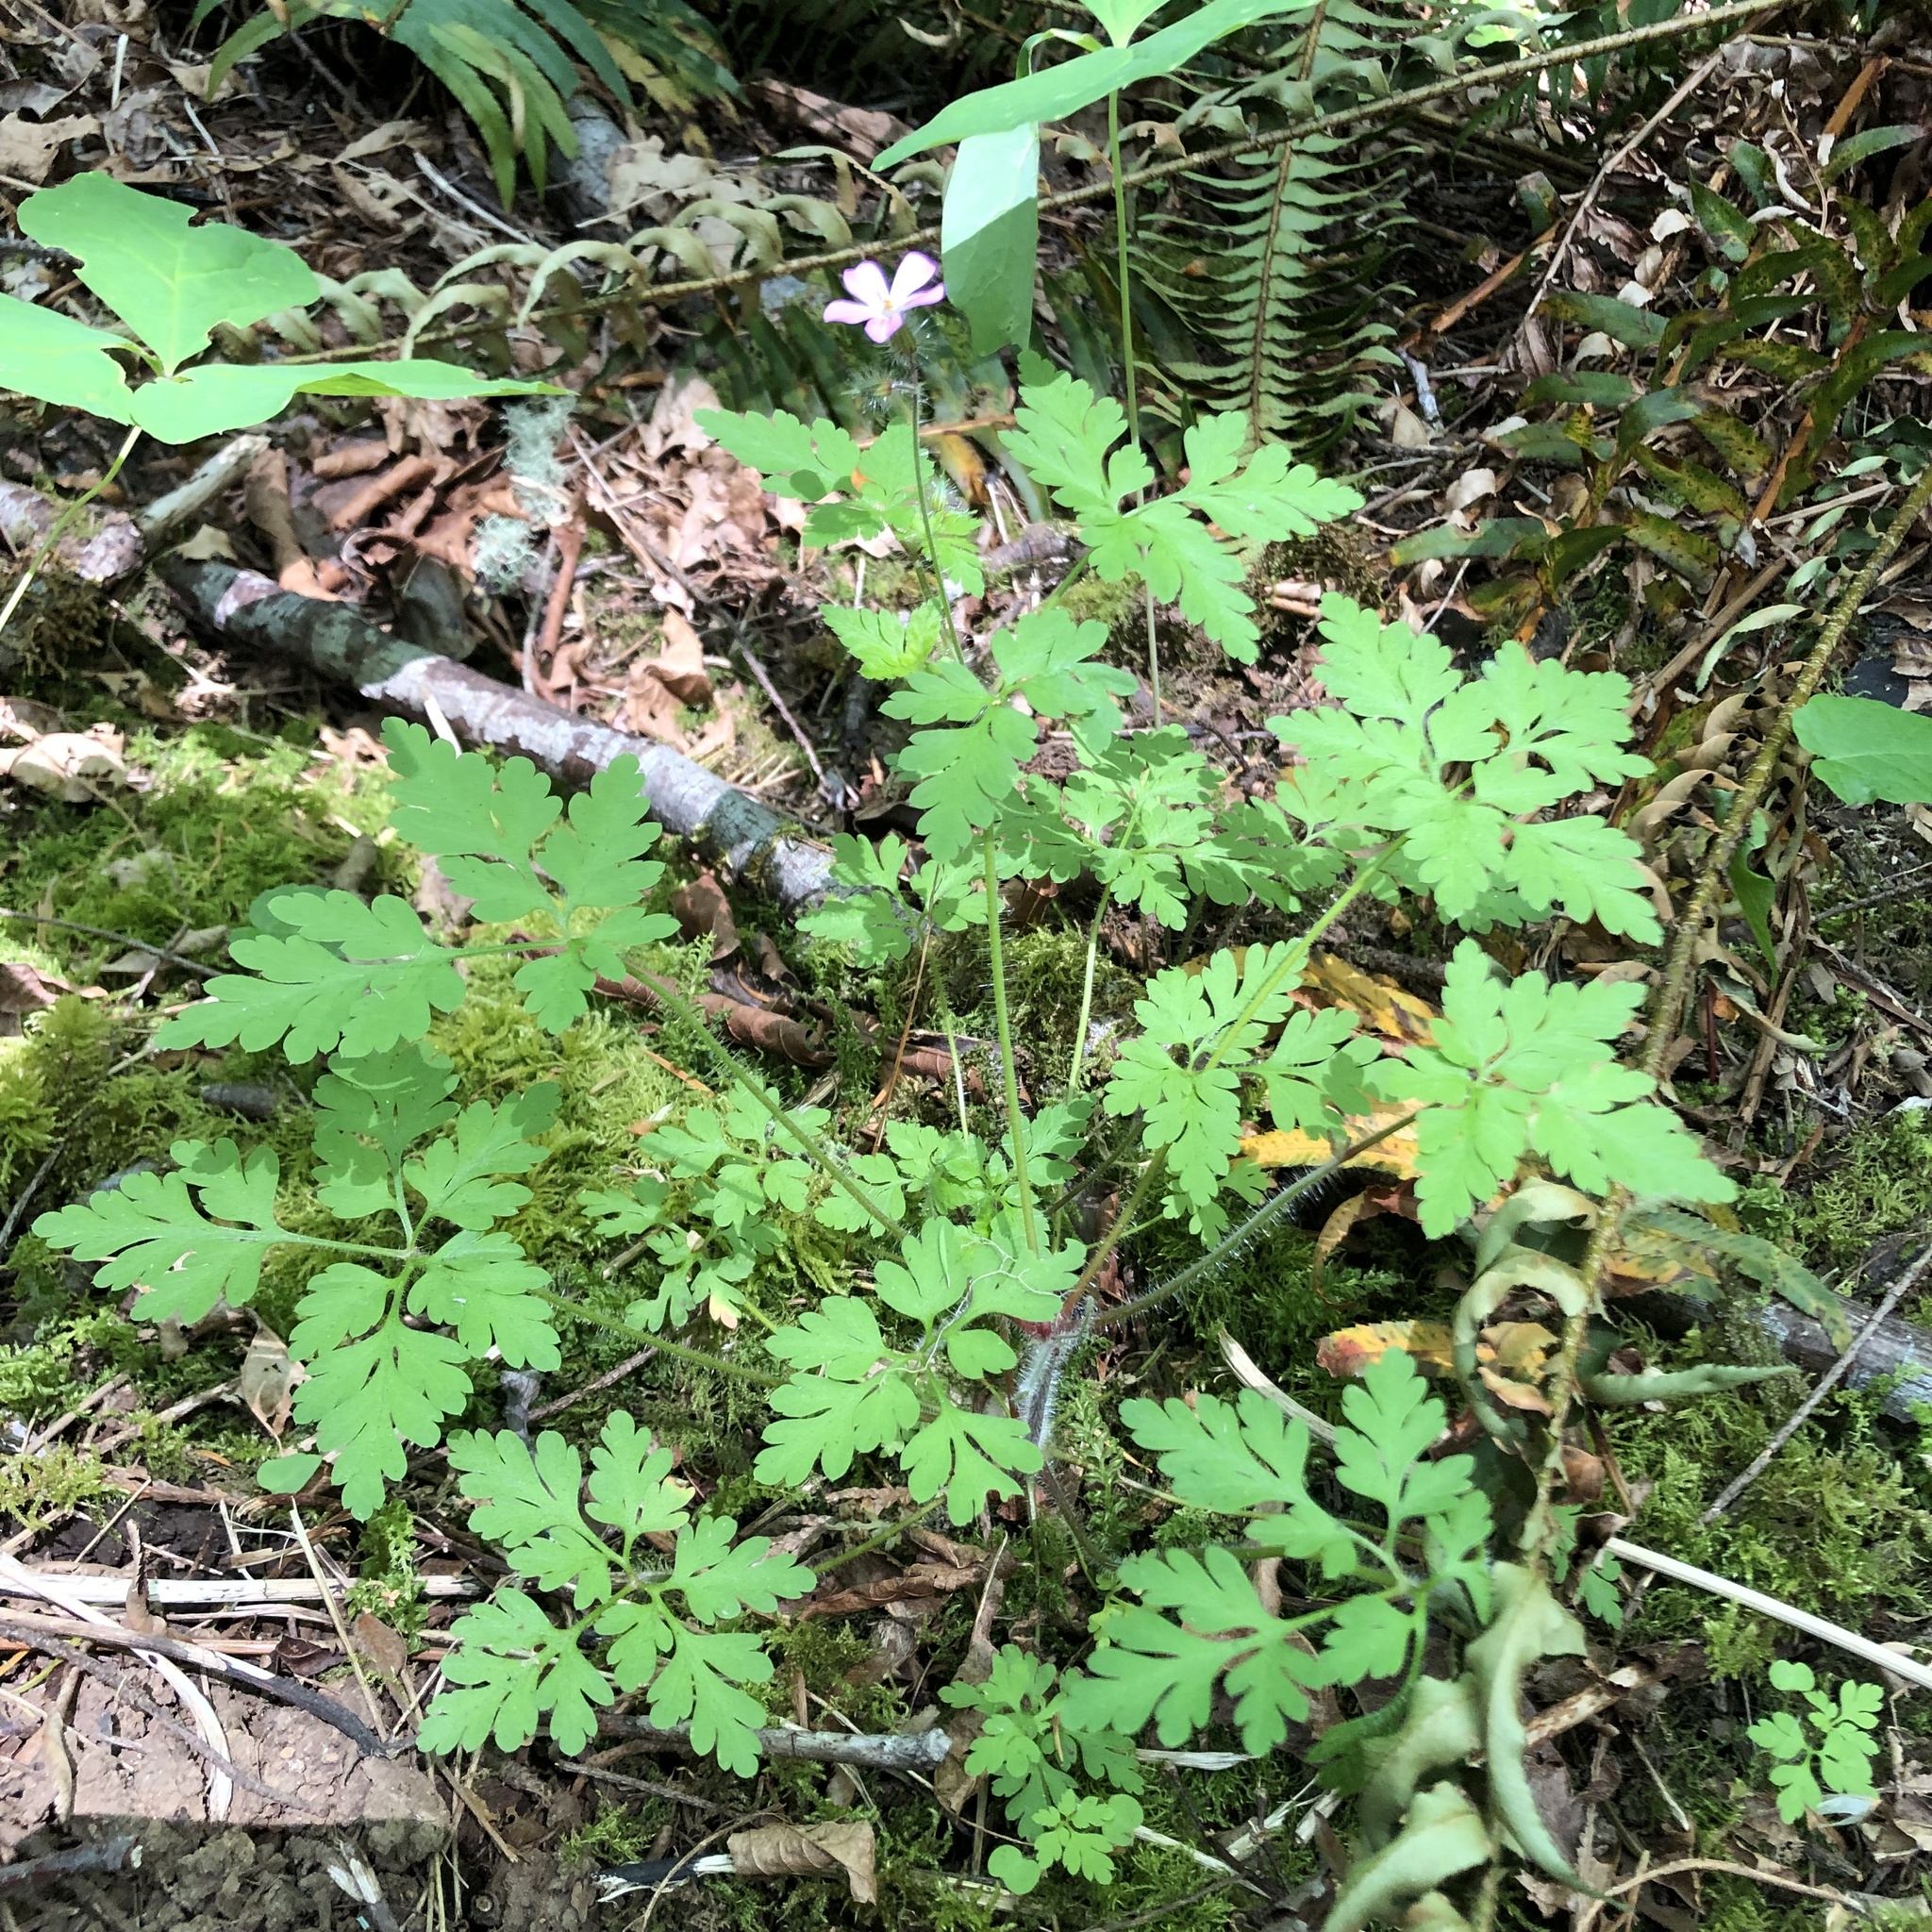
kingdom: Plantae
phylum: Tracheophyta
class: Magnoliopsida
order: Geraniales
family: Geraniaceae
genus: Geranium
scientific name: Geranium robertianum
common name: Herb-robert
